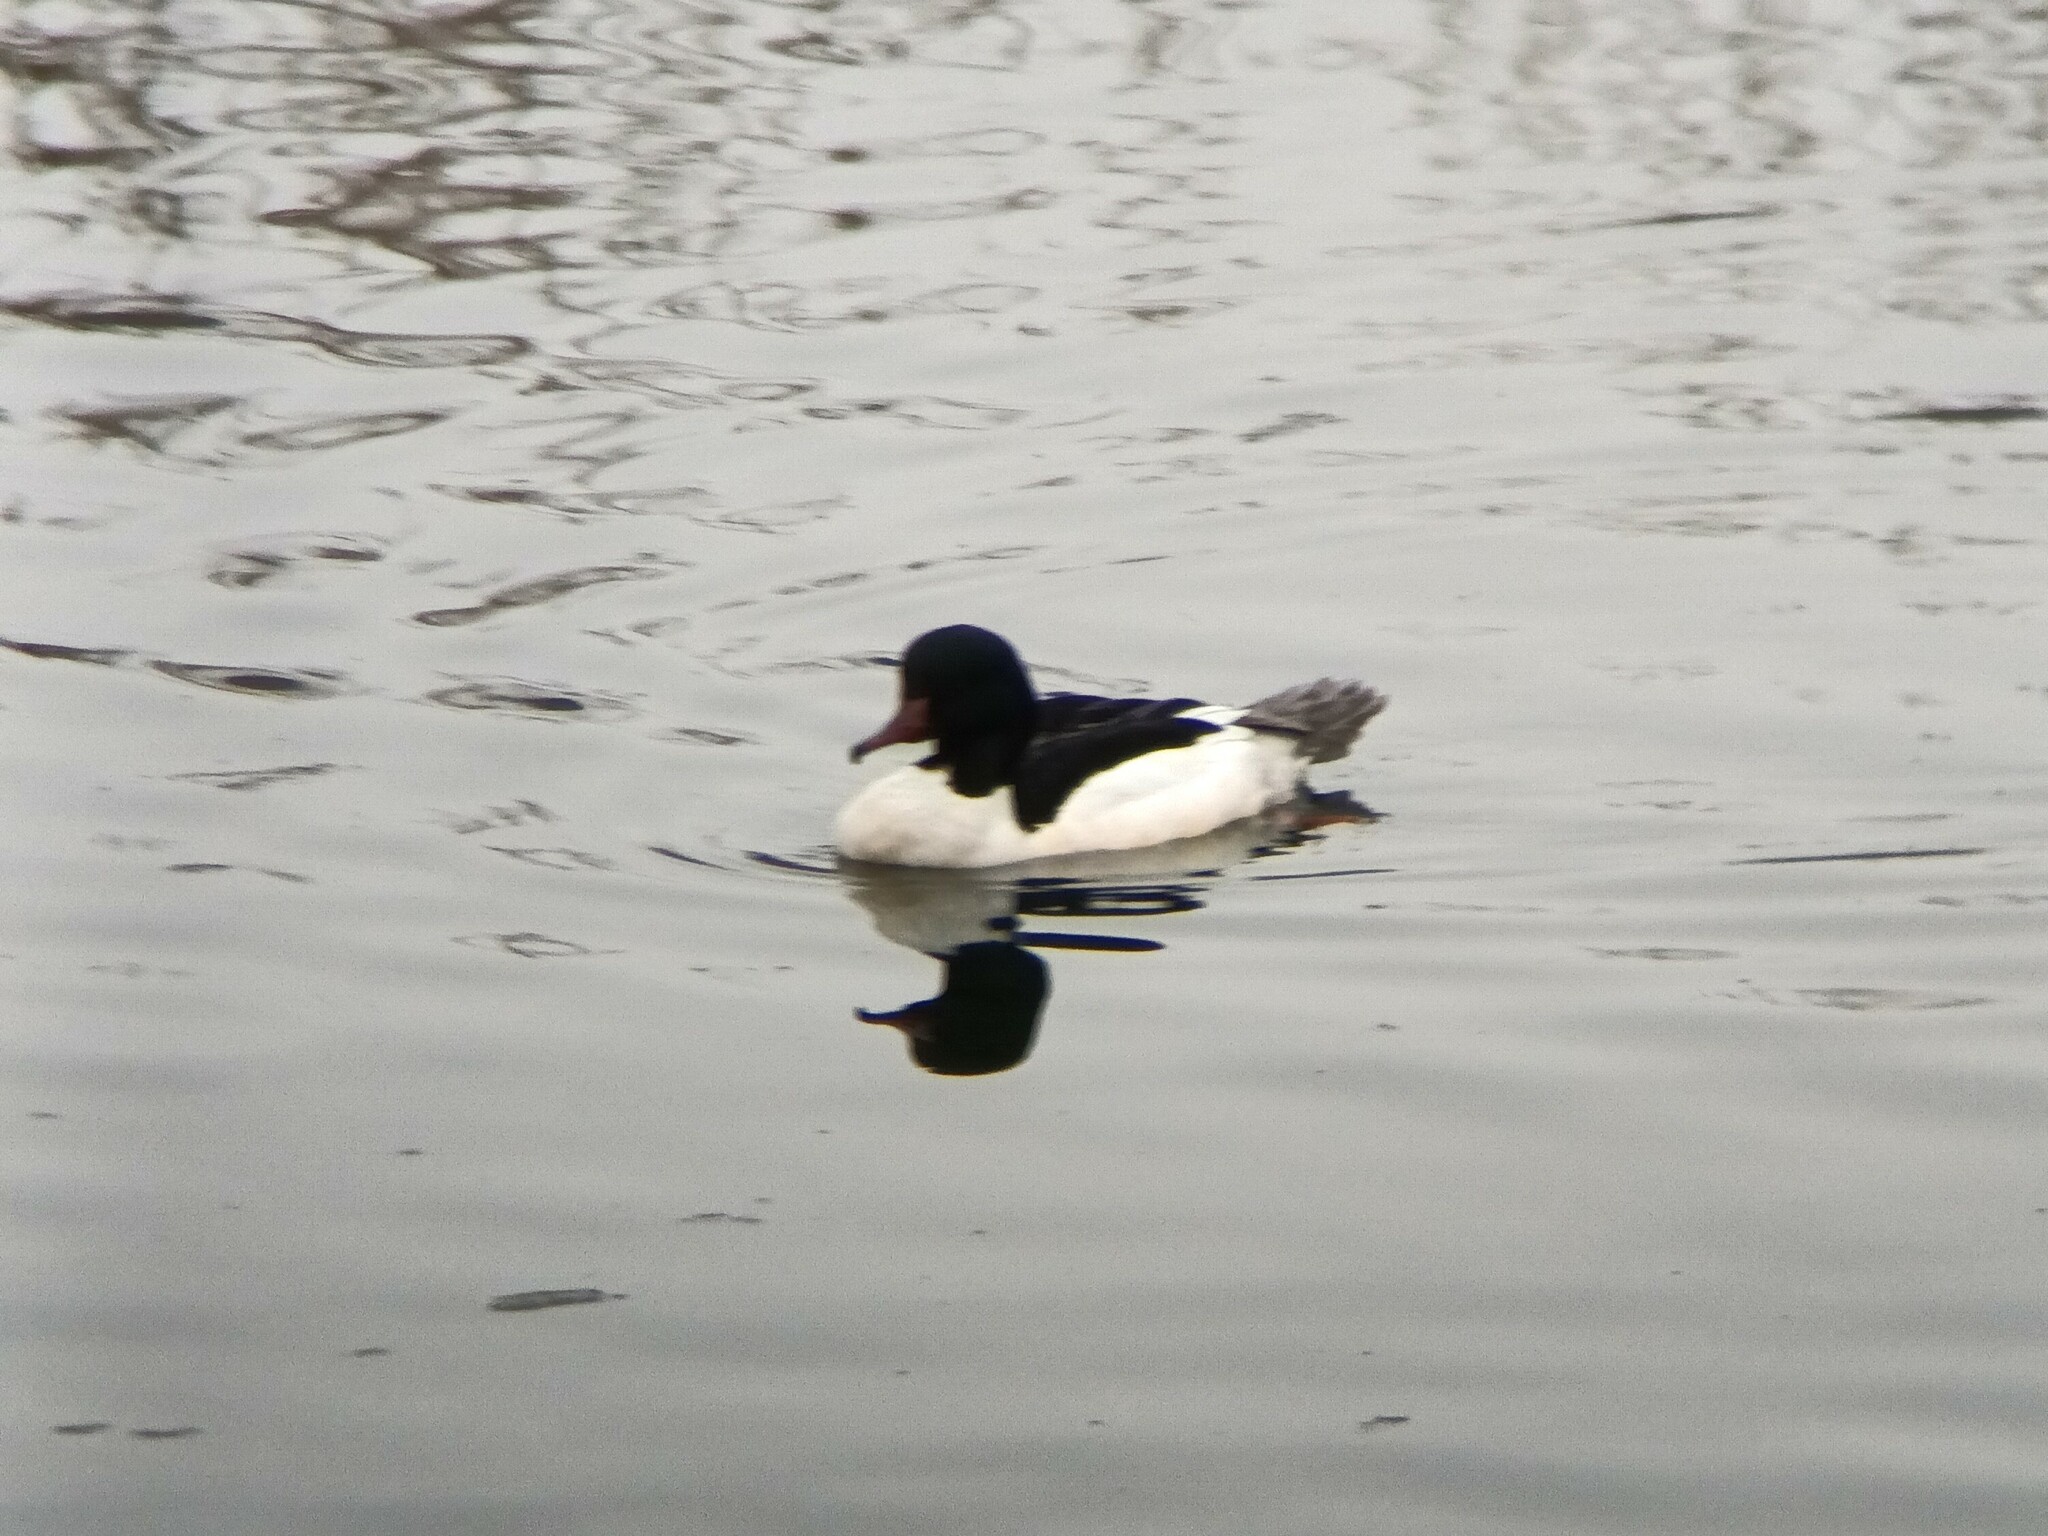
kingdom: Animalia
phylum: Chordata
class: Aves
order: Anseriformes
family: Anatidae
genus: Mergus
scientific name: Mergus merganser
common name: Common merganser
